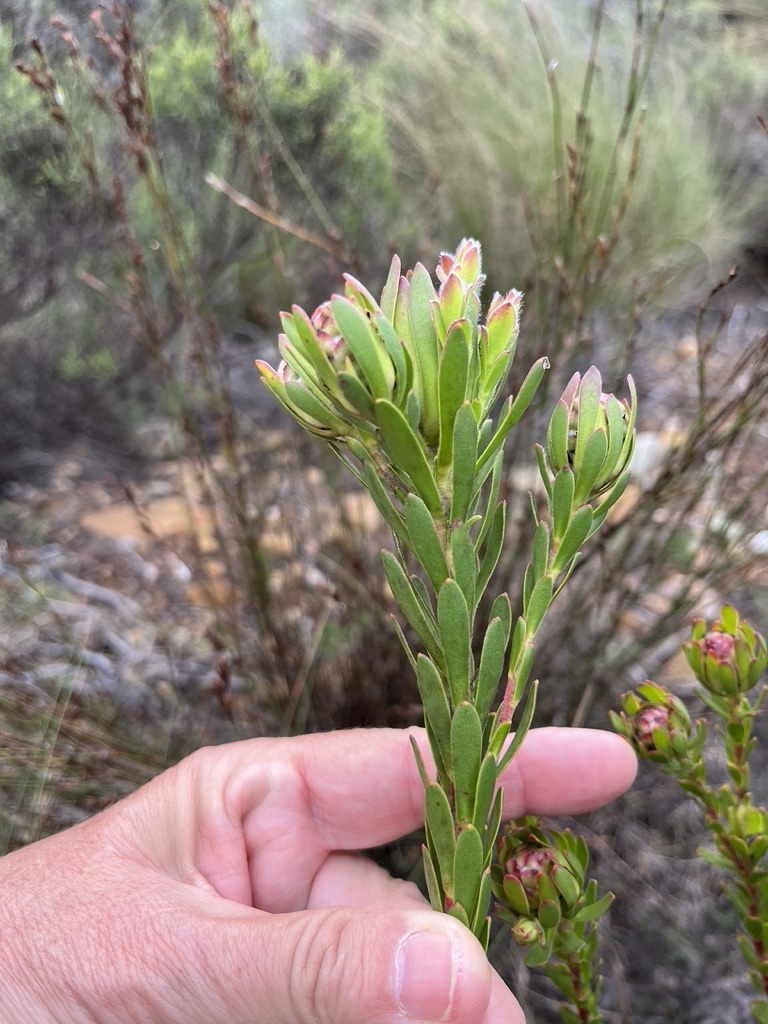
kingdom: Plantae
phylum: Tracheophyta
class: Magnoliopsida
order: Proteales
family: Proteaceae
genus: Leucadendron
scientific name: Leucadendron stelligerum
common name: Agulhas conebush
